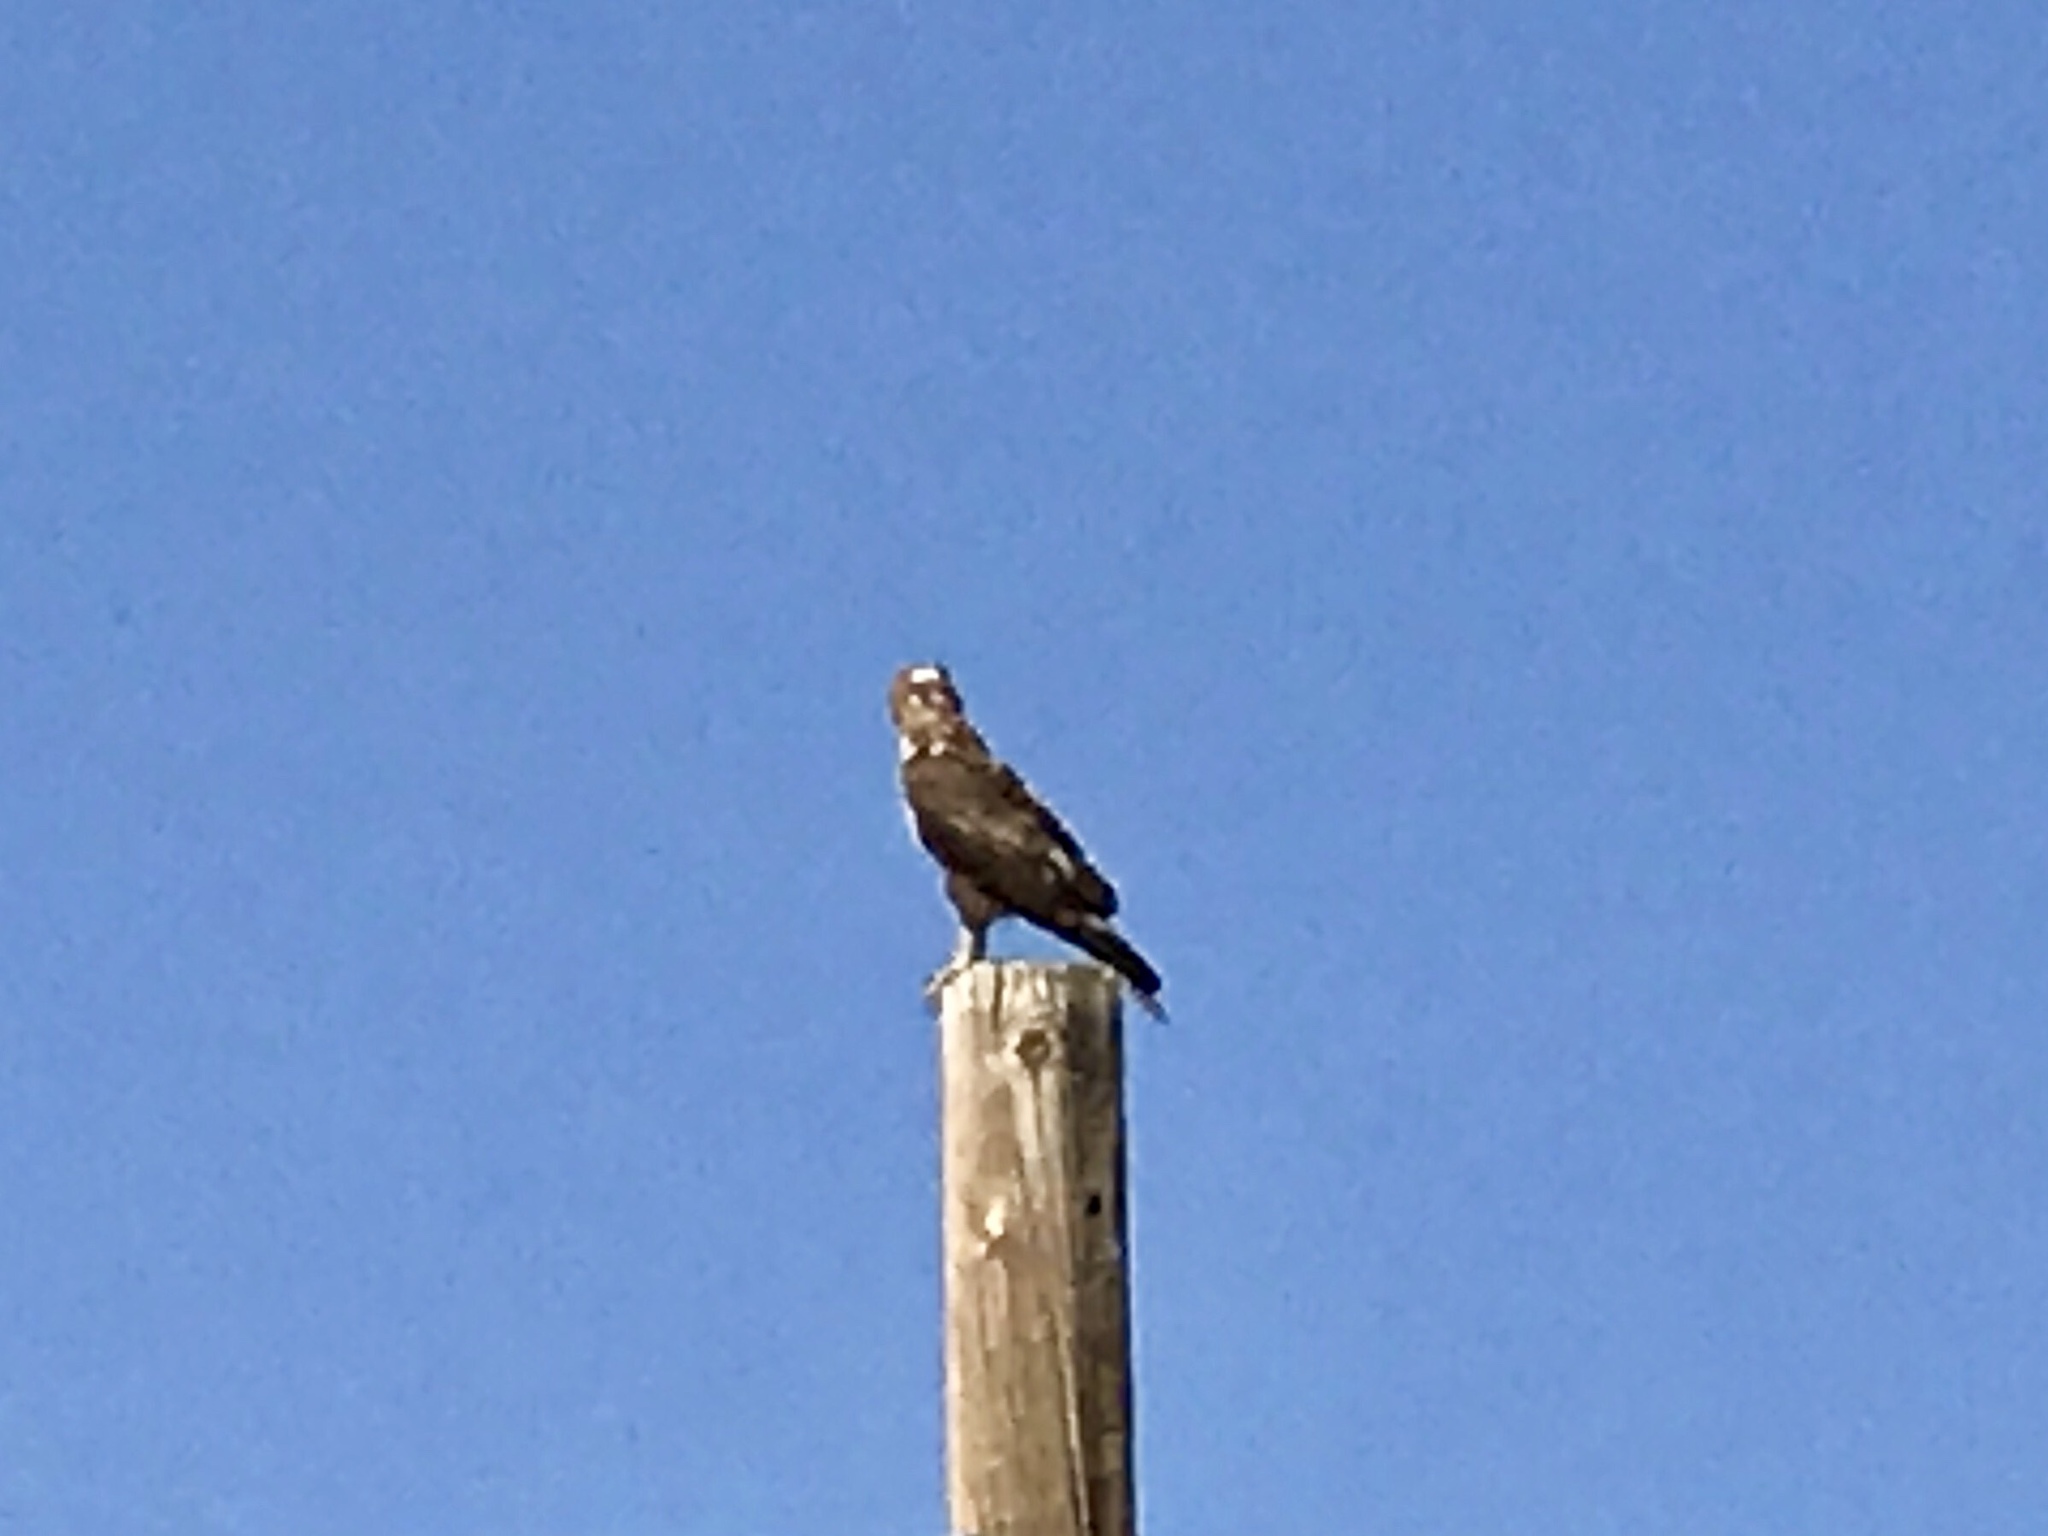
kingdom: Animalia
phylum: Chordata
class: Aves
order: Accipitriformes
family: Accipitridae
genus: Buteo
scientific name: Buteo jamaicensis
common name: Red-tailed hawk
